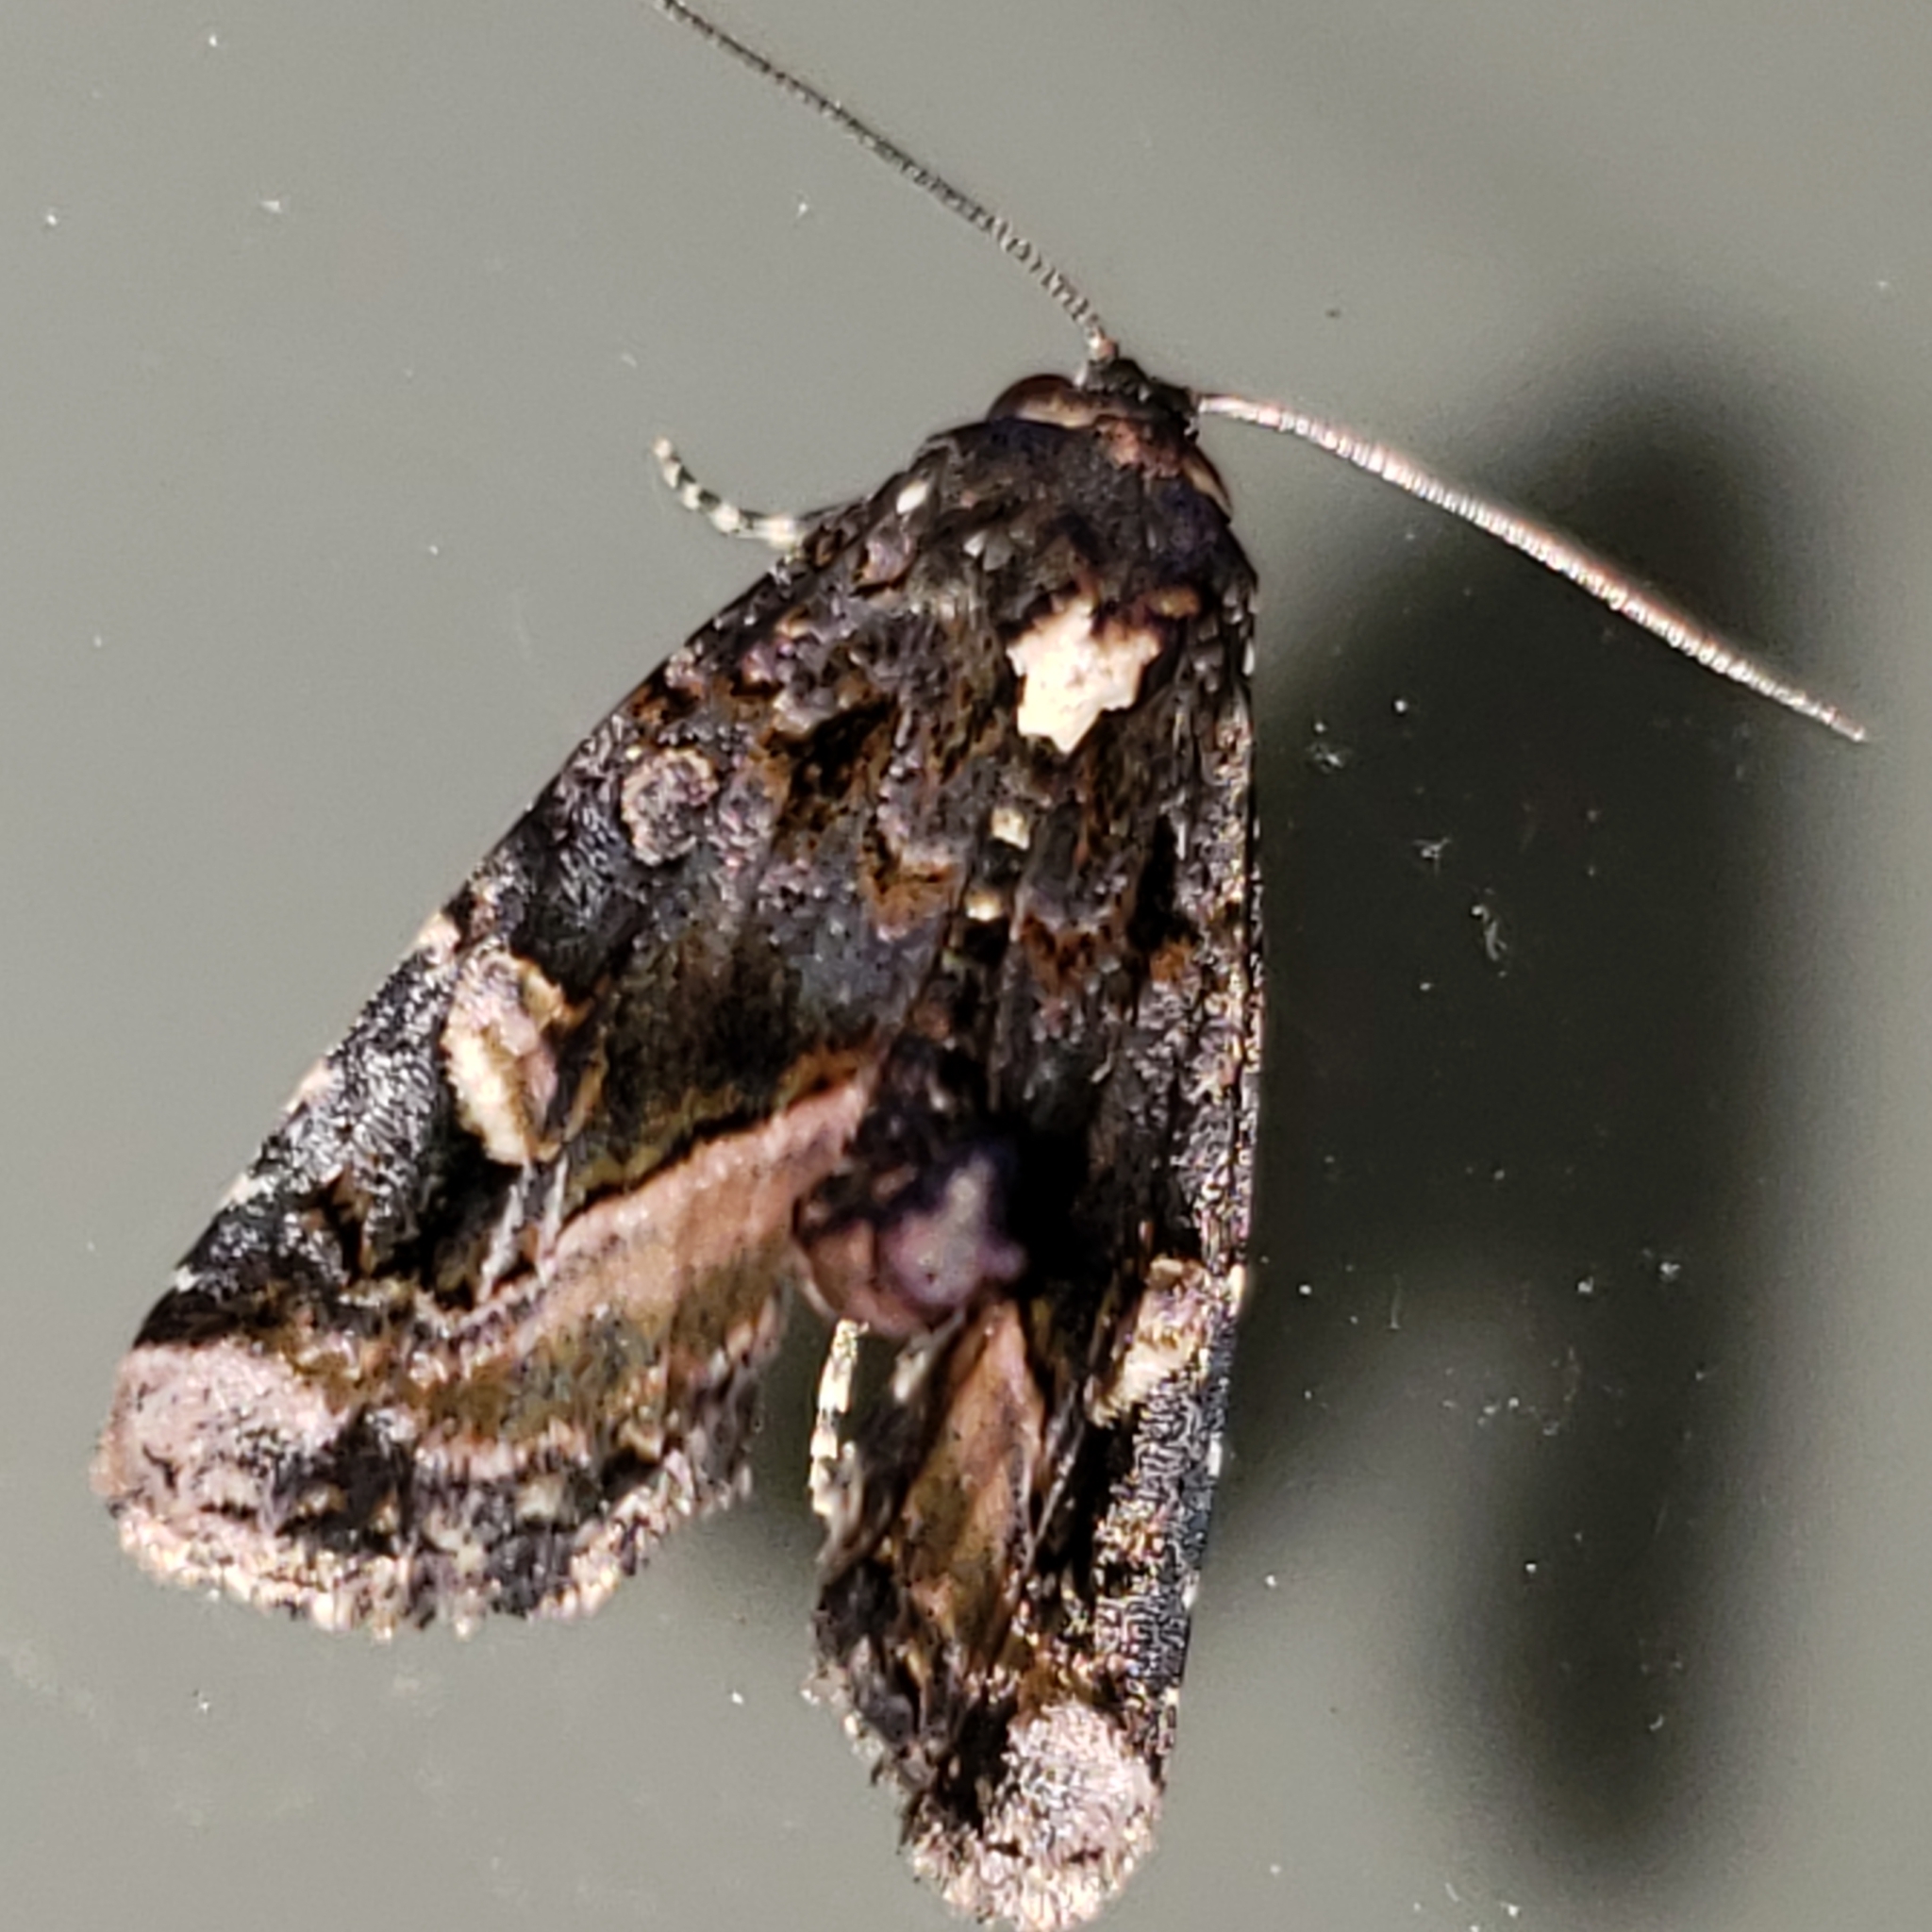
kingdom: Animalia
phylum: Arthropoda
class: Insecta
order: Lepidoptera
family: Noctuidae
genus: Homophoberia
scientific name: Homophoberia apicosa
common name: Black wedge-spot
